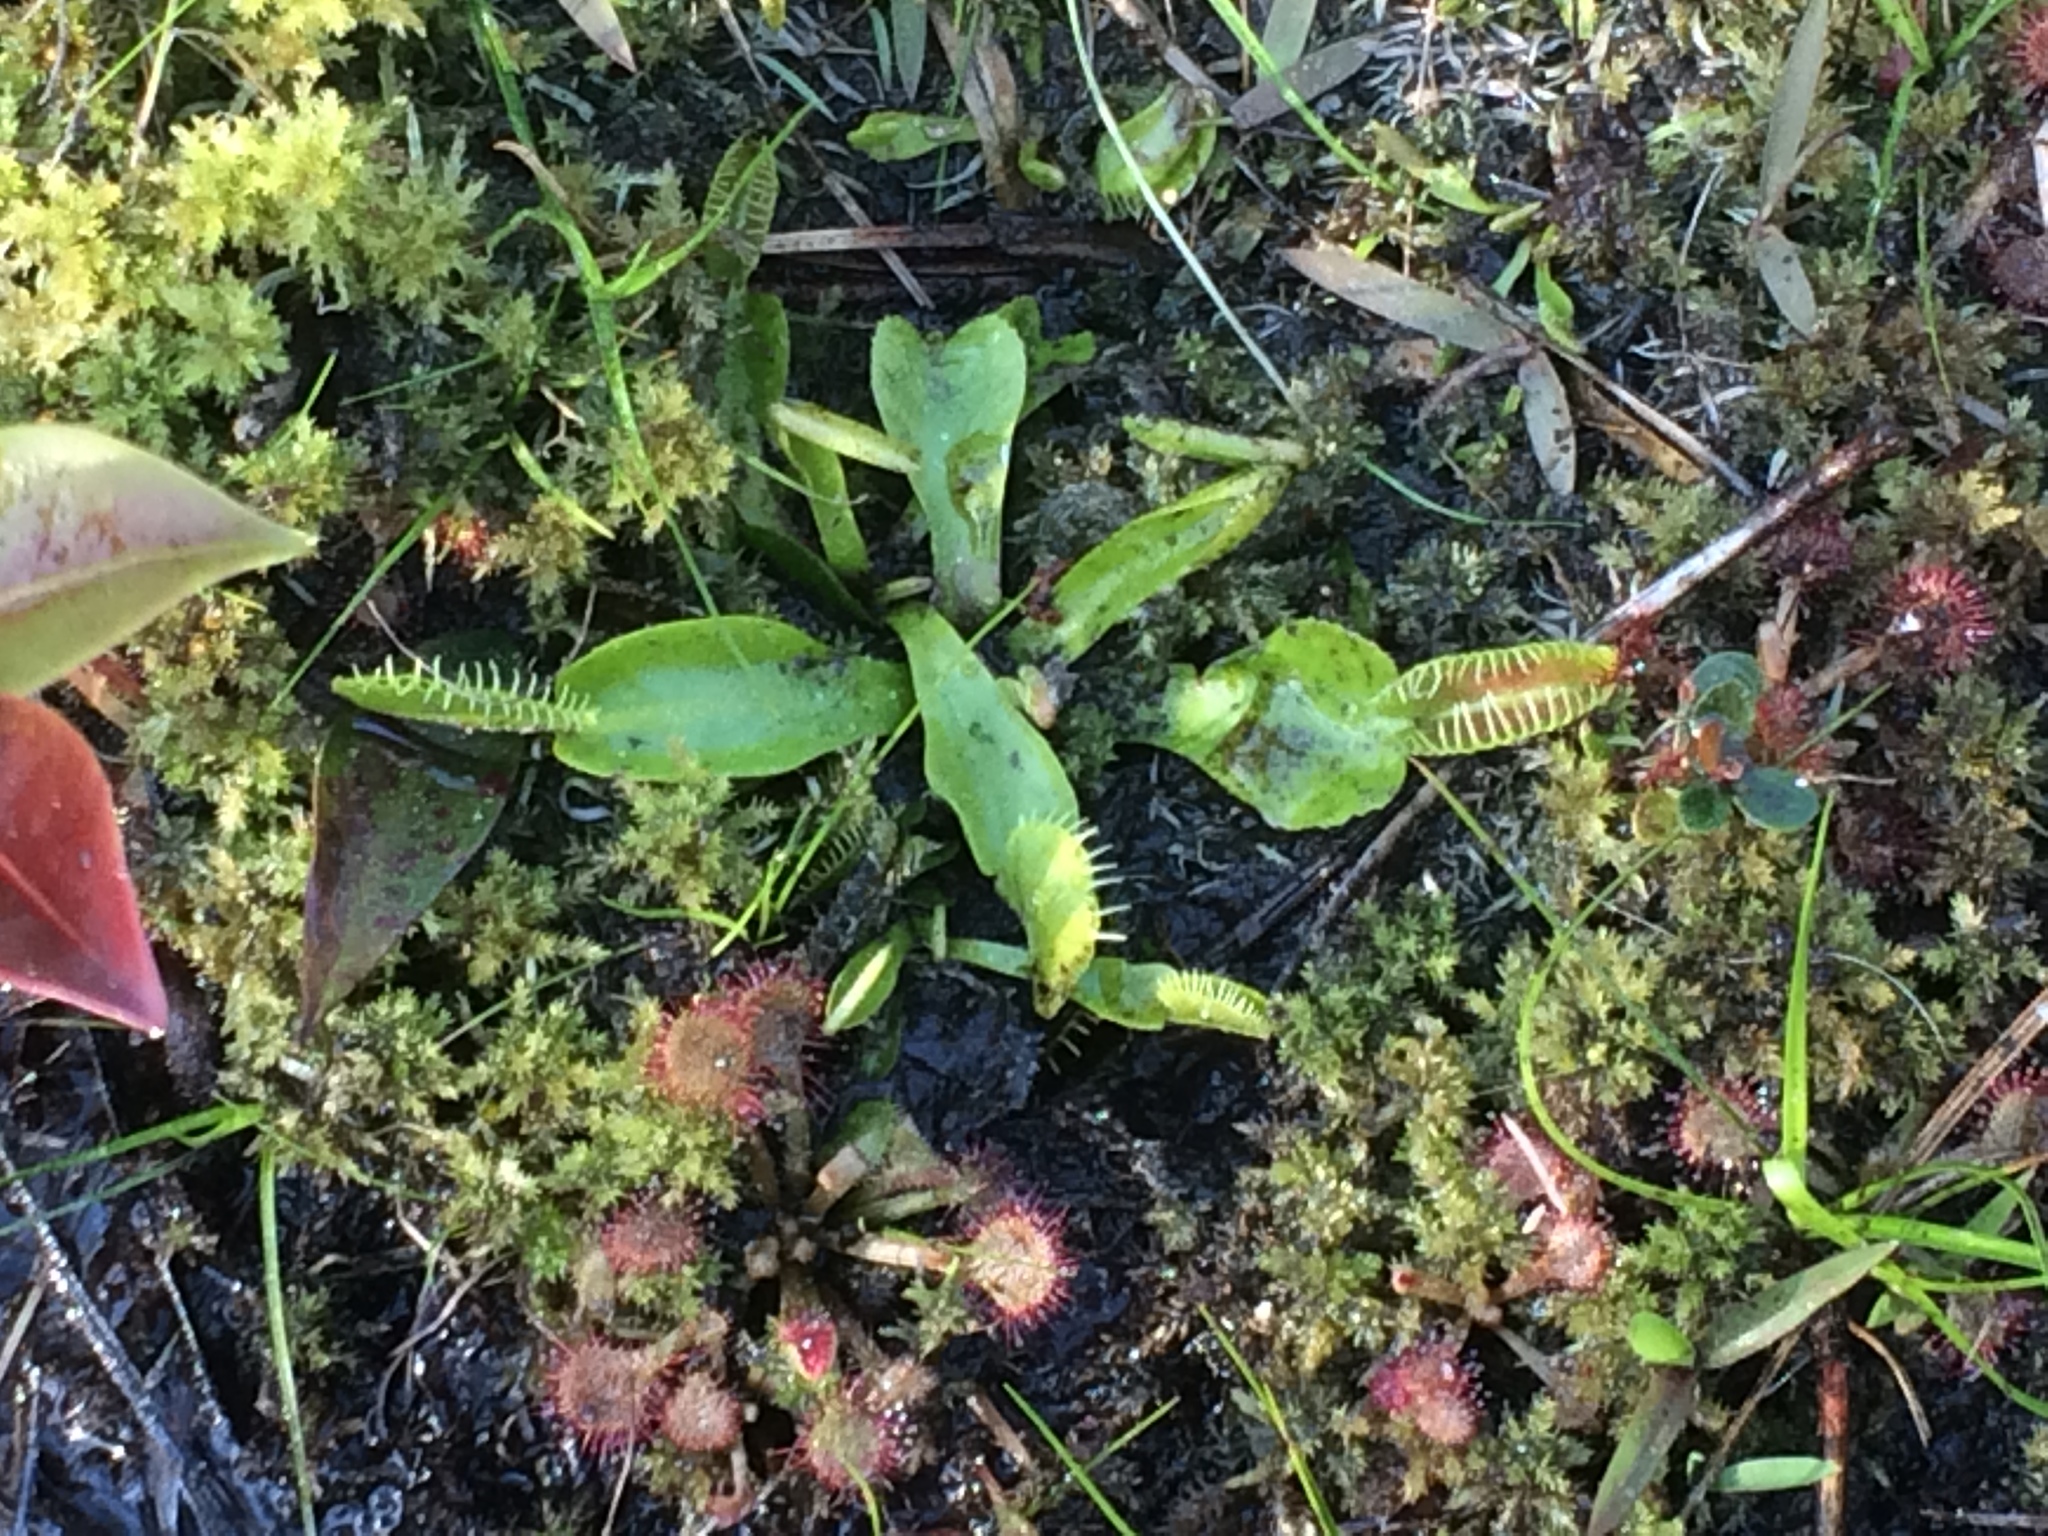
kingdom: Plantae
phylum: Tracheophyta
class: Magnoliopsida
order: Caryophyllales
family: Droseraceae
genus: Dionaea
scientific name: Dionaea muscipula
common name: Venus flytrap
